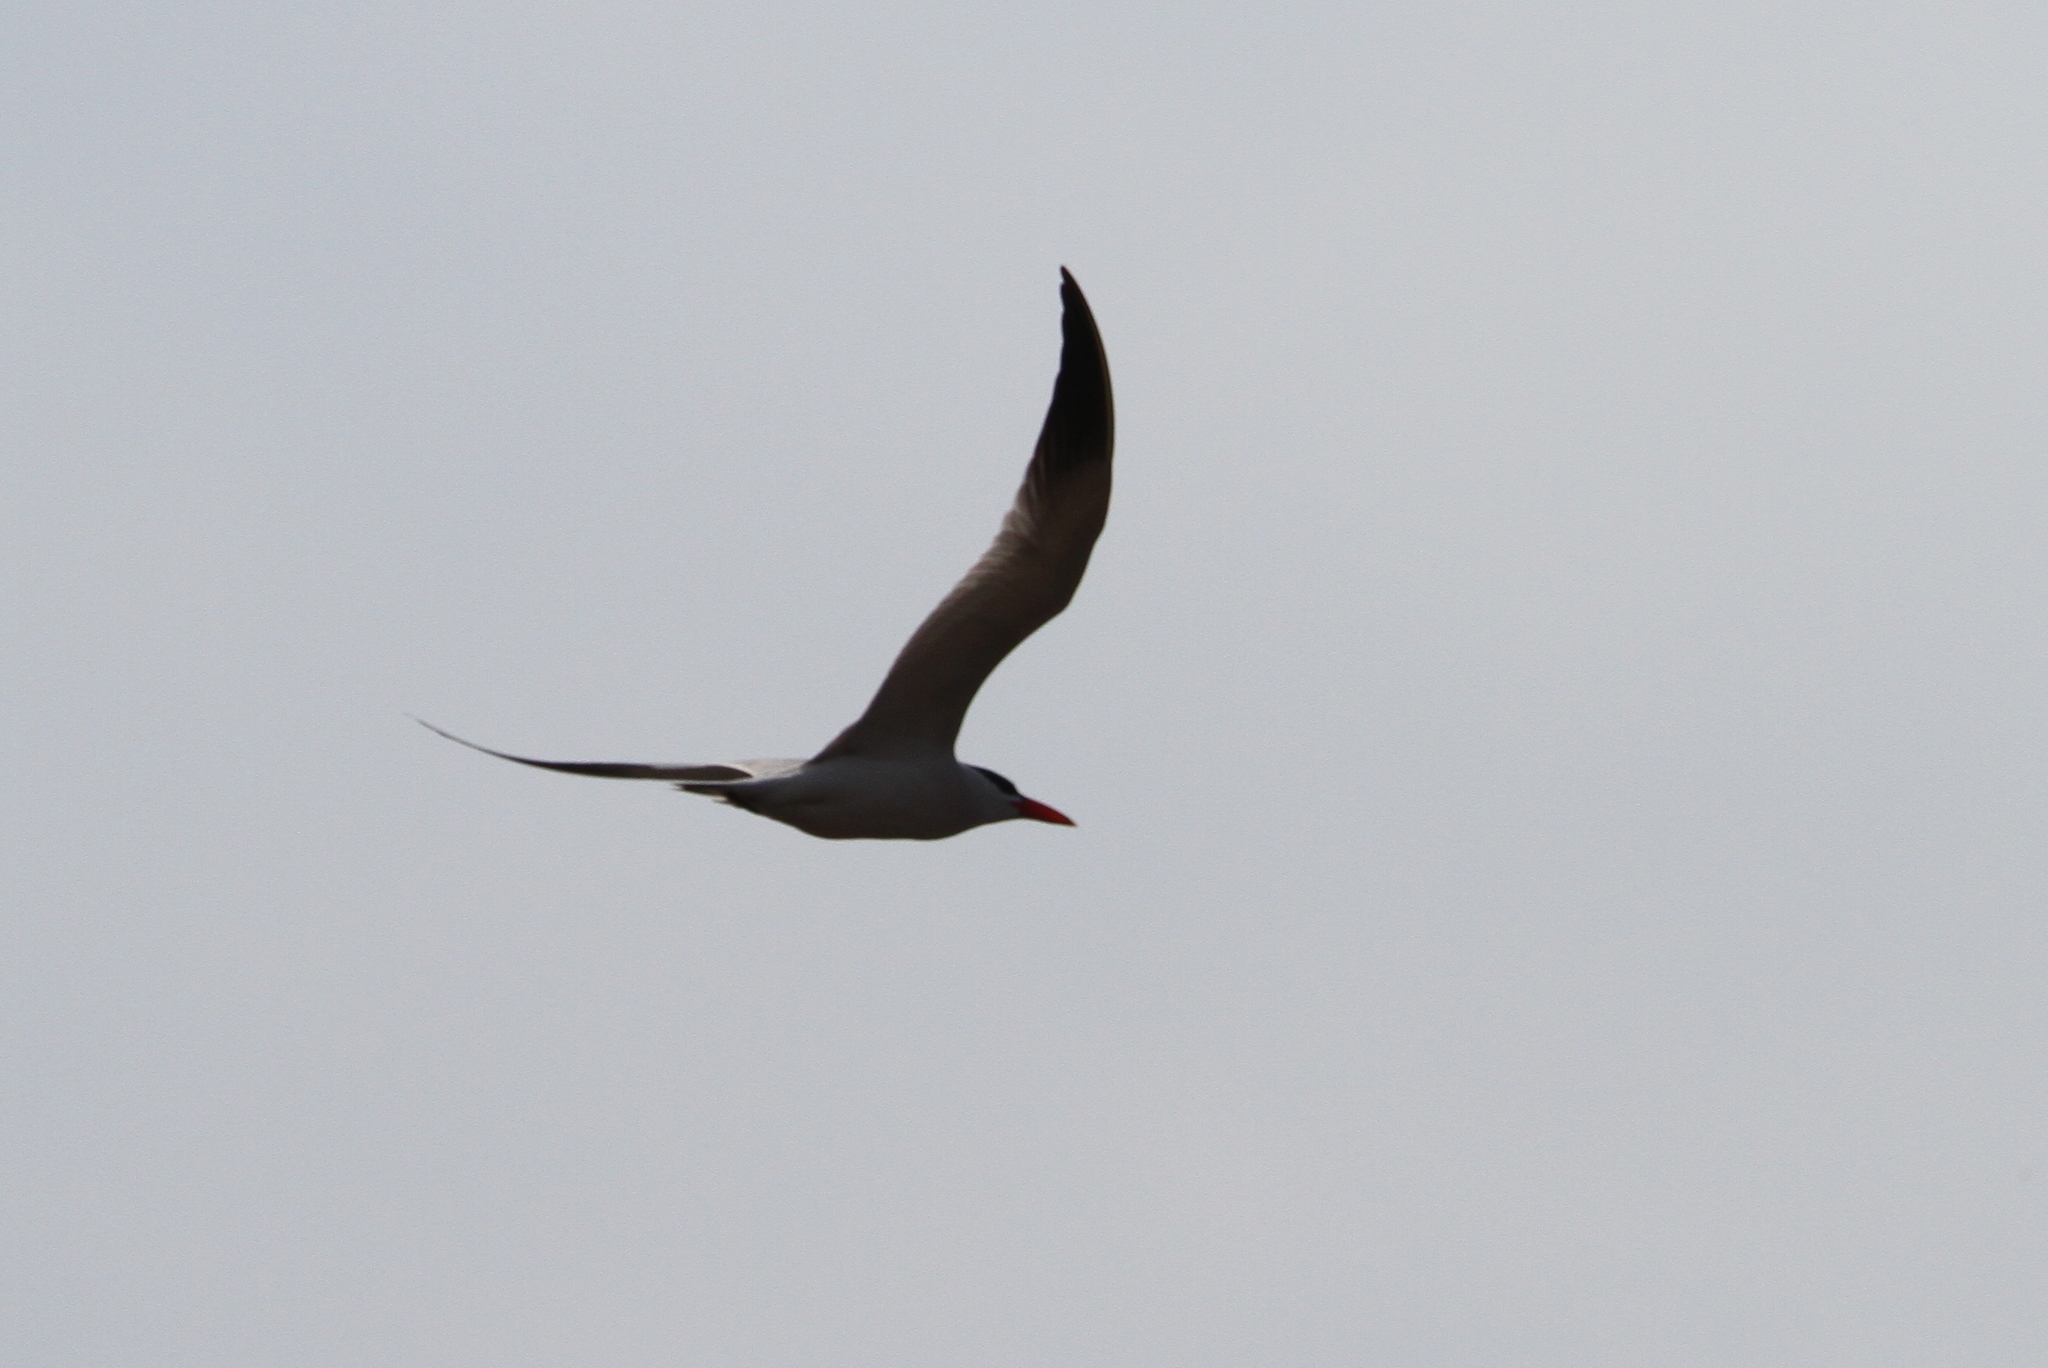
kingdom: Animalia
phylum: Chordata
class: Aves
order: Charadriiformes
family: Laridae
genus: Hydroprogne
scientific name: Hydroprogne caspia
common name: Caspian tern
